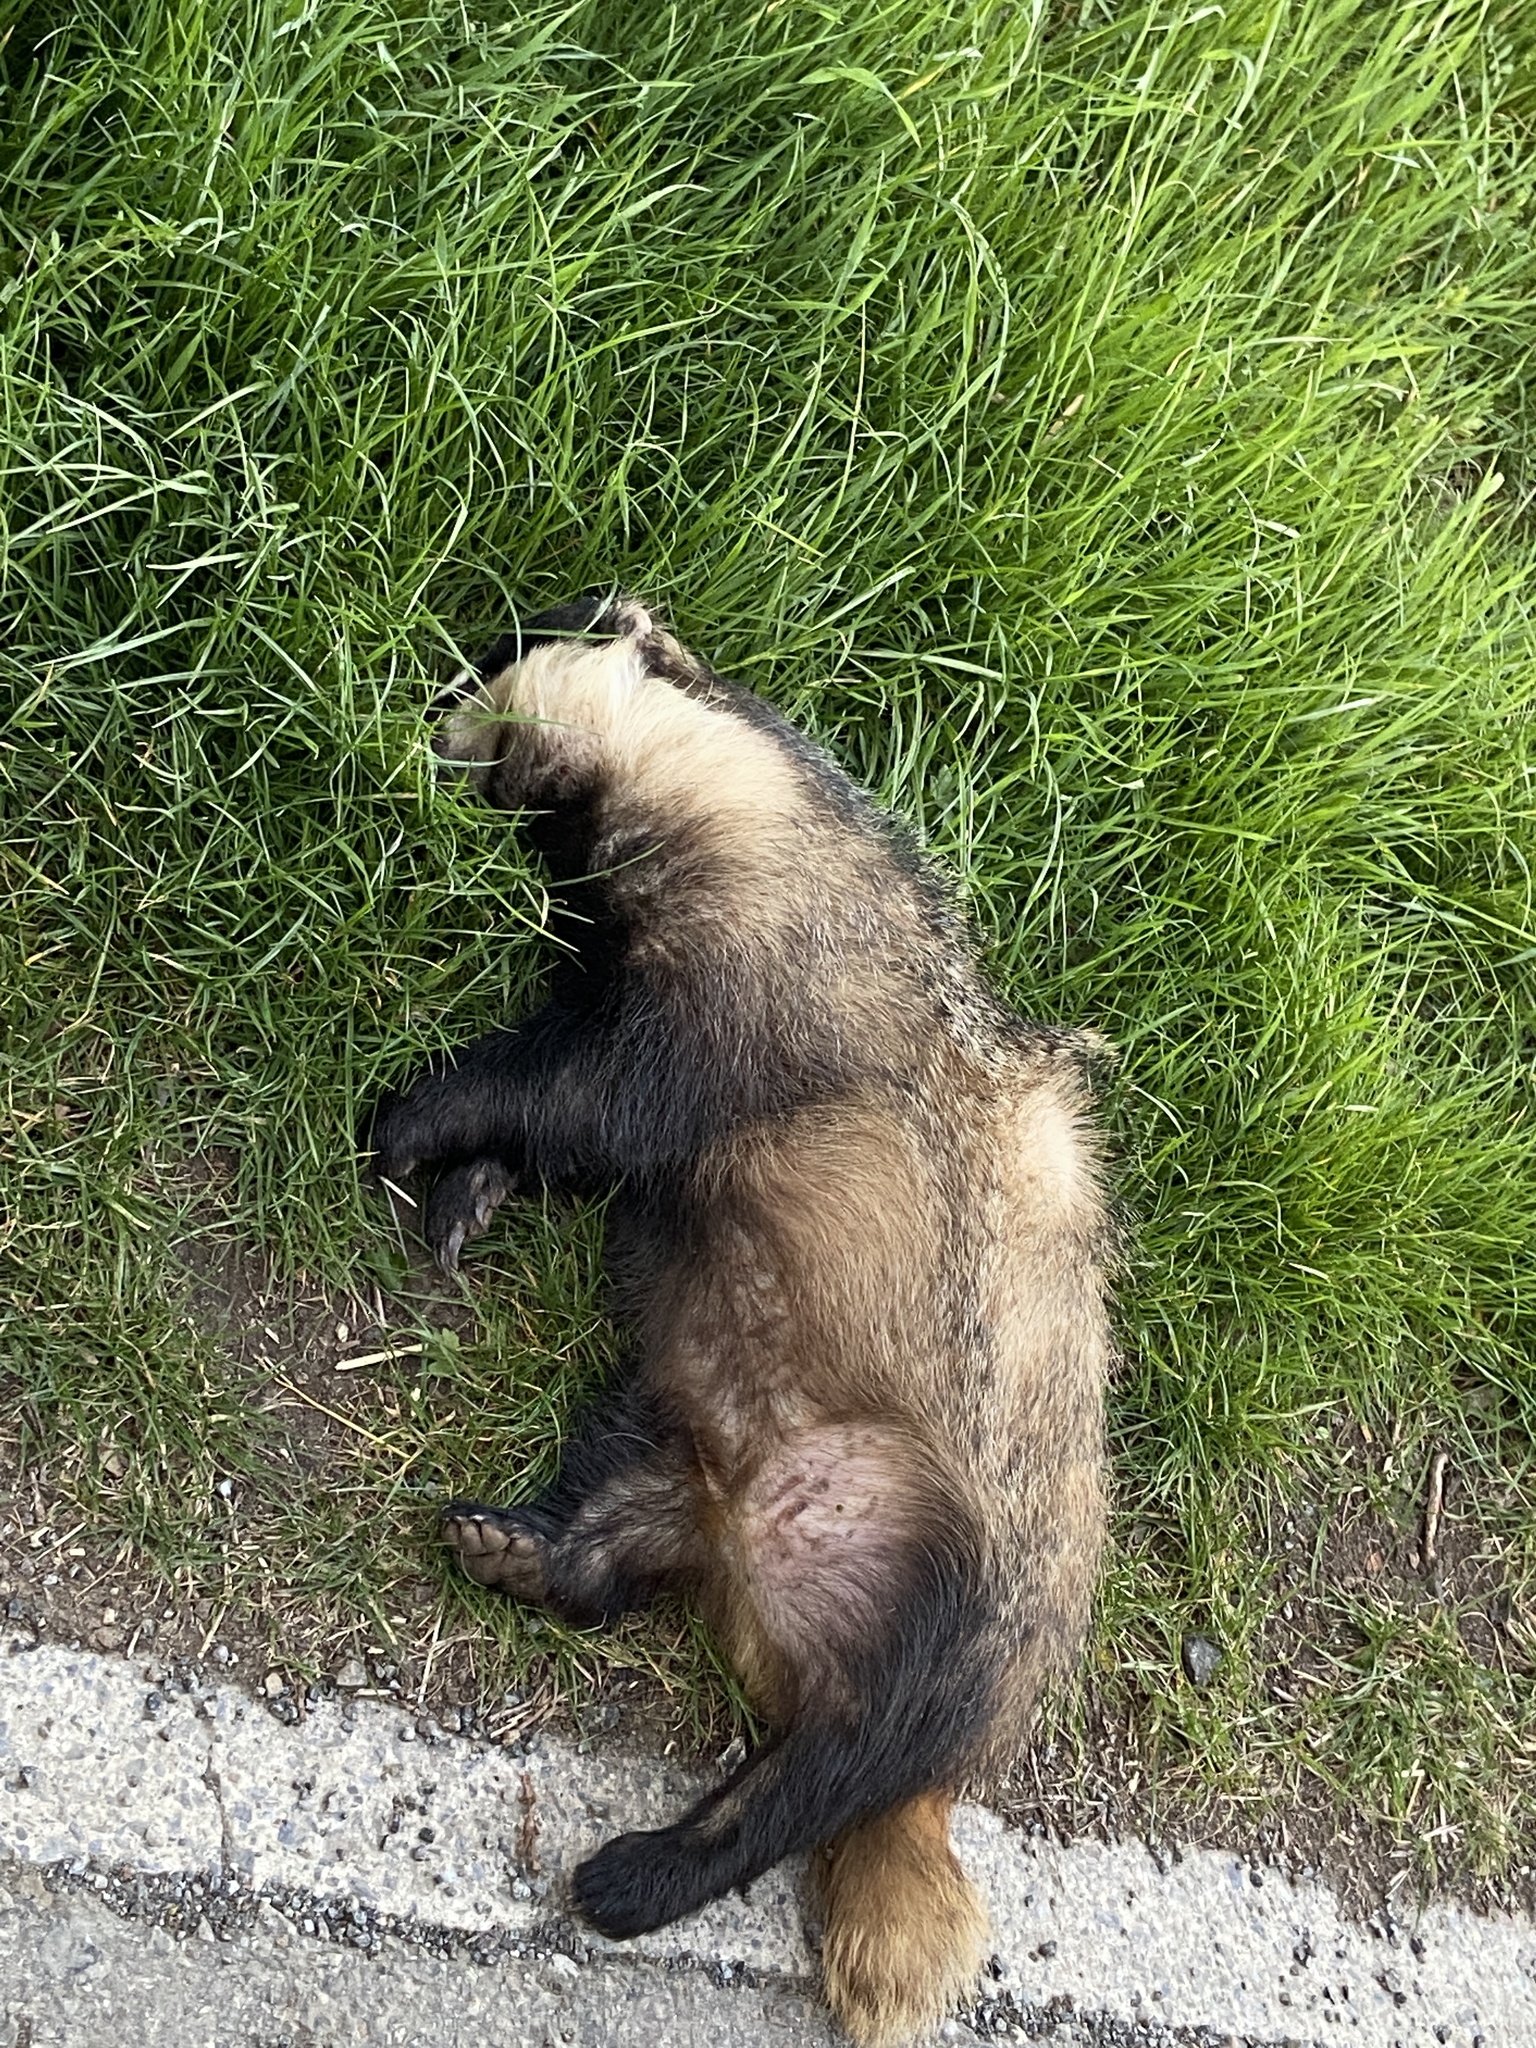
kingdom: Animalia
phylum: Chordata
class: Mammalia
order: Carnivora
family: Mustelidae
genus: Meles
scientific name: Meles meles
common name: Eurasian badger
